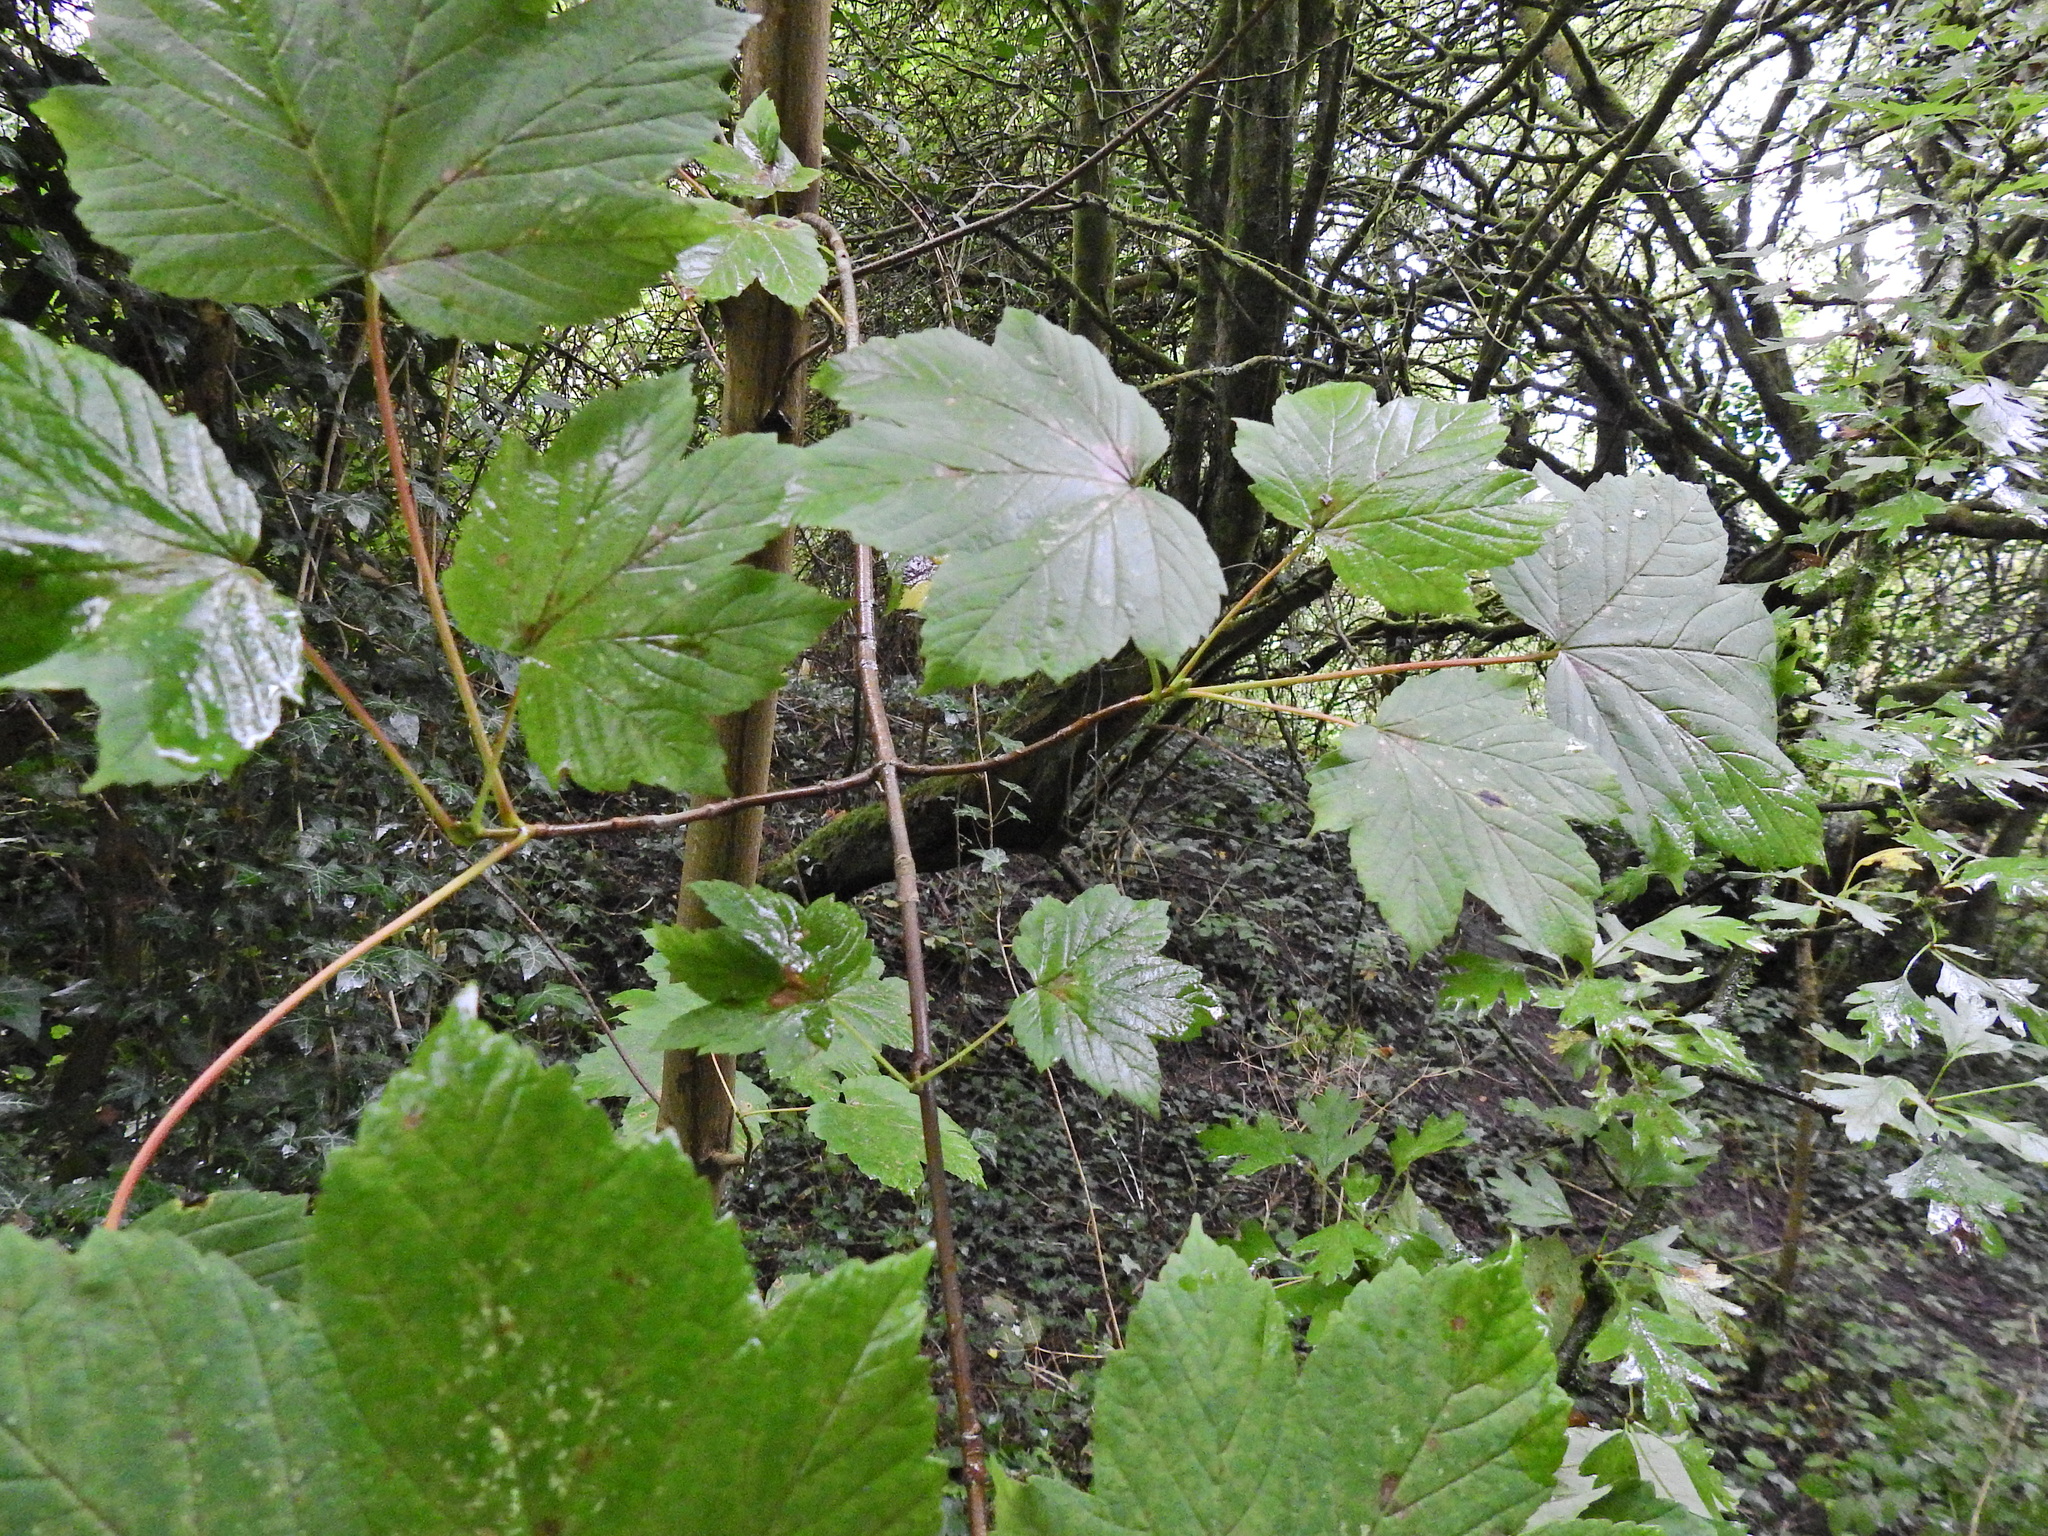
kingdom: Plantae
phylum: Tracheophyta
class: Magnoliopsida
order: Sapindales
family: Sapindaceae
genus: Acer
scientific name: Acer pseudoplatanus
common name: Sycamore
